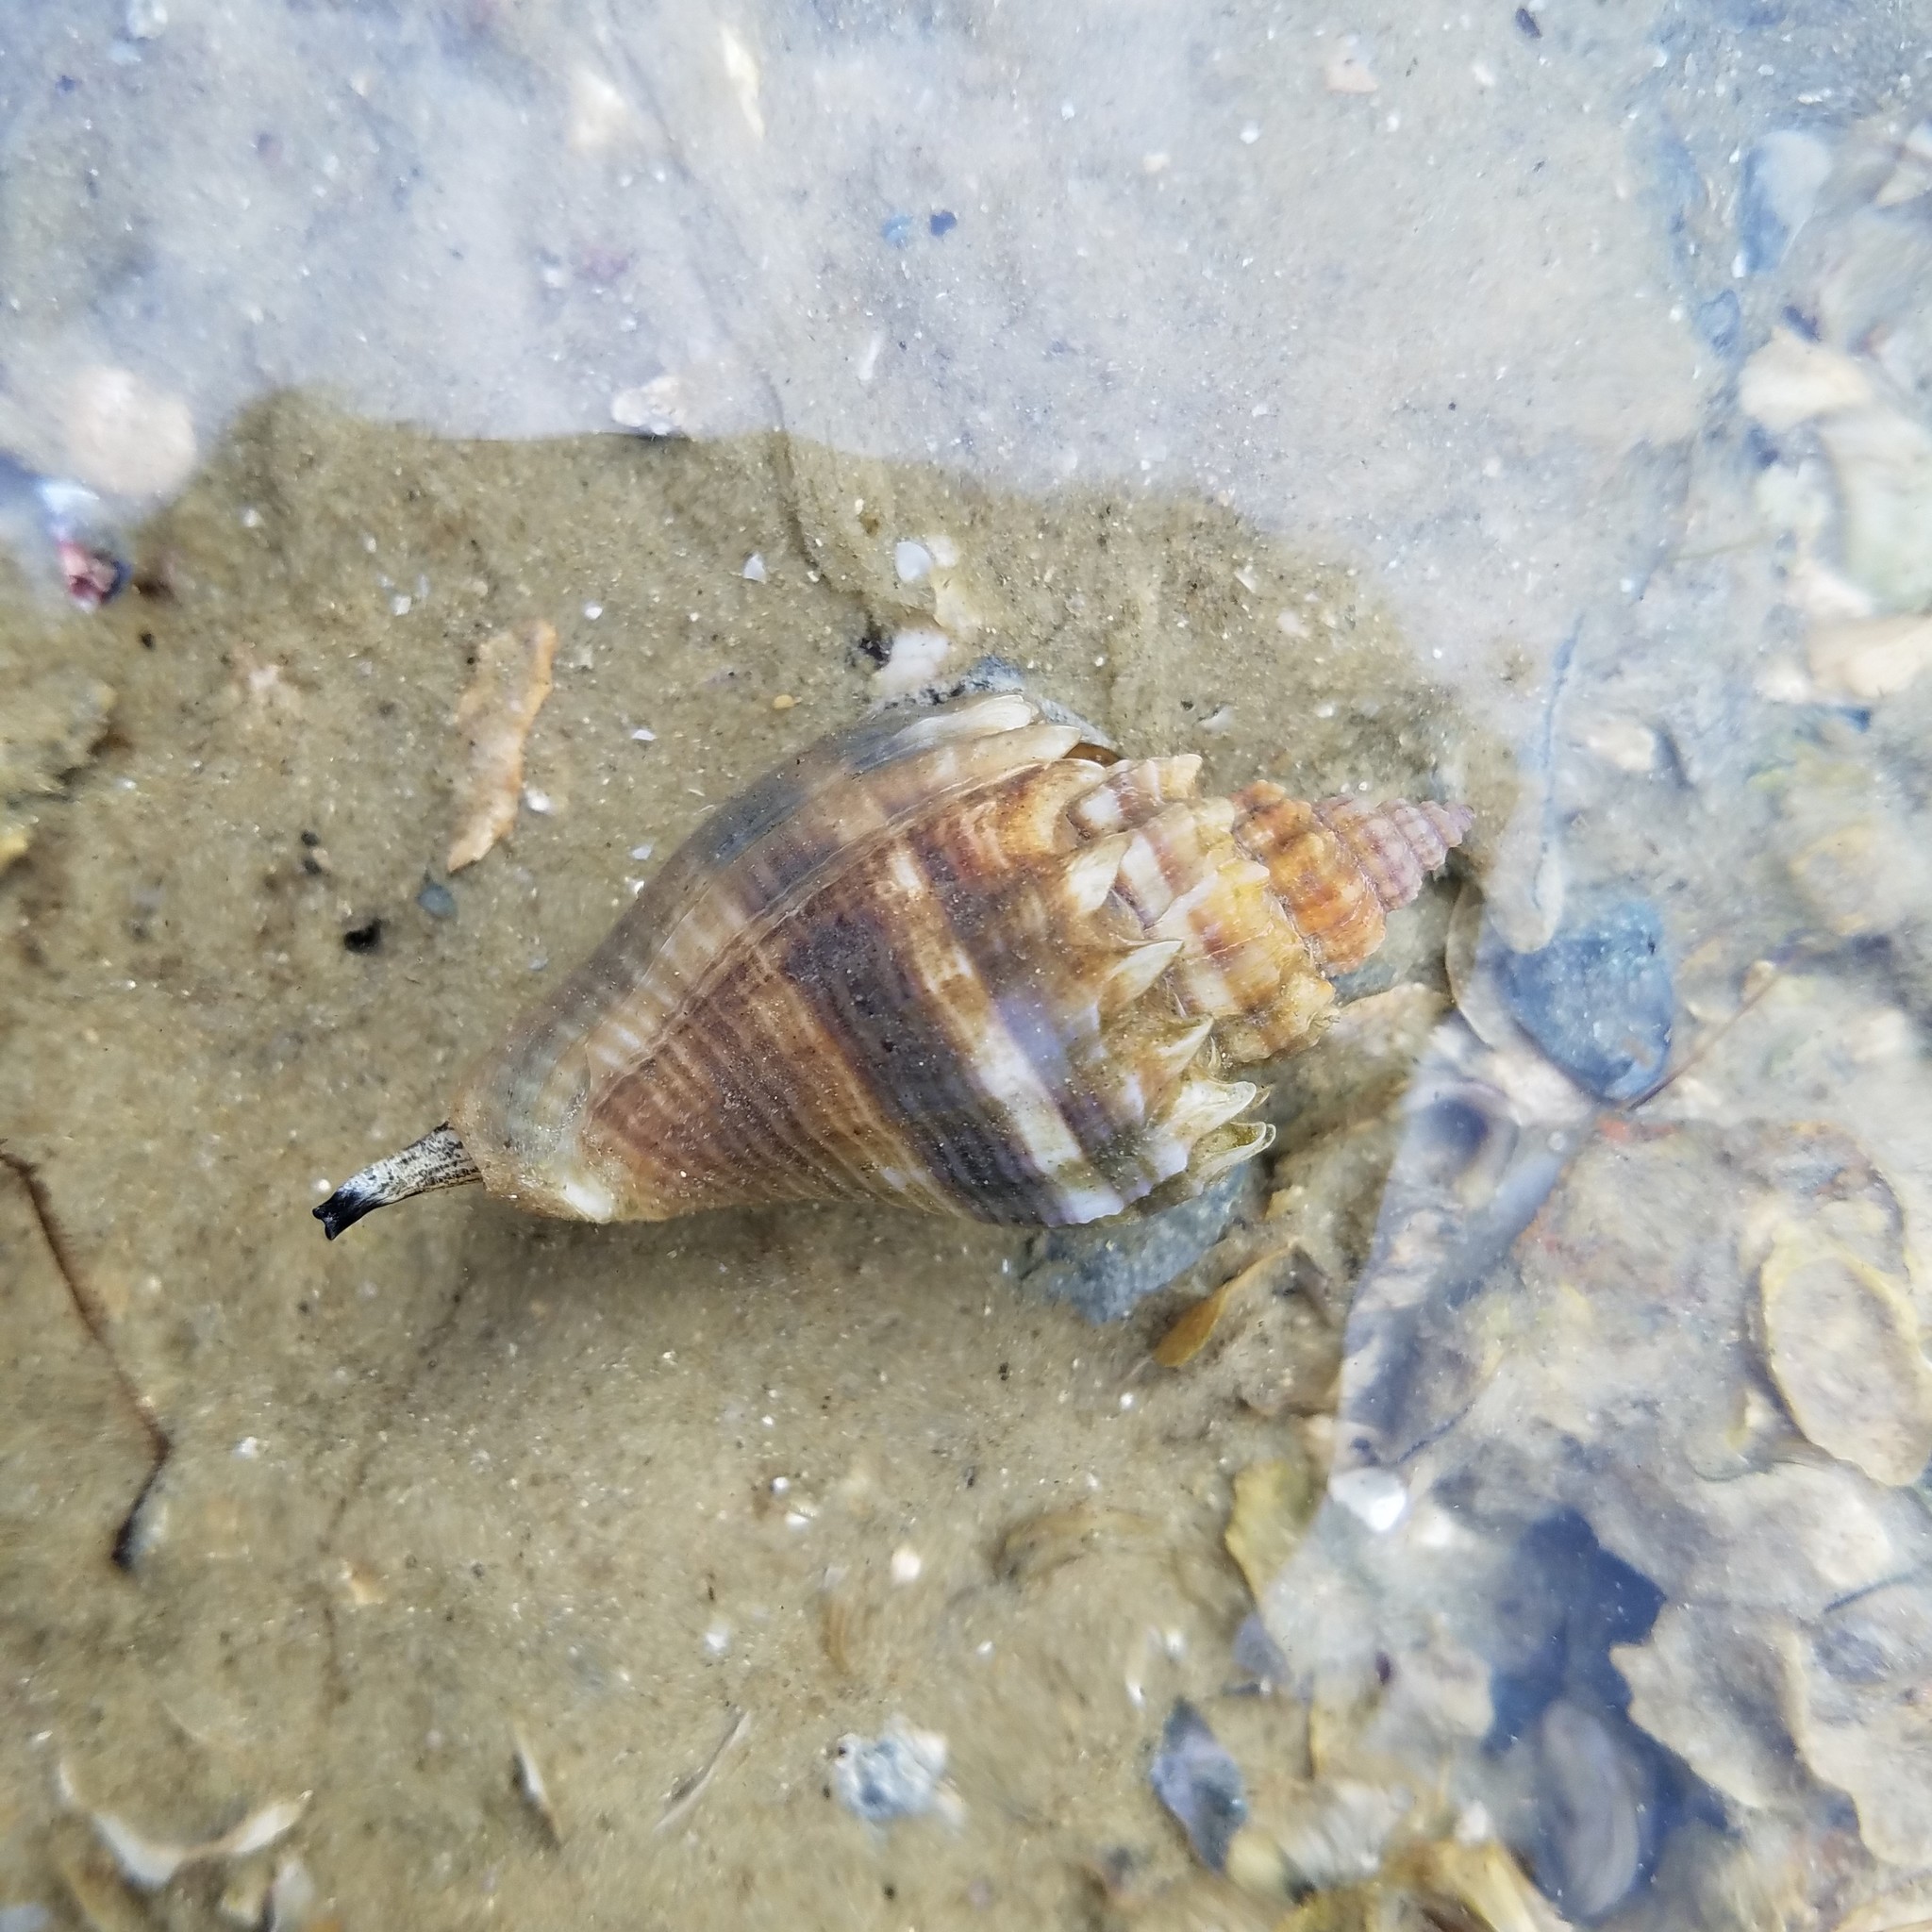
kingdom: Animalia
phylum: Mollusca
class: Gastropoda
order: Neogastropoda
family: Melongenidae
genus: Melongena
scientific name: Melongena corona
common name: American crown conch
